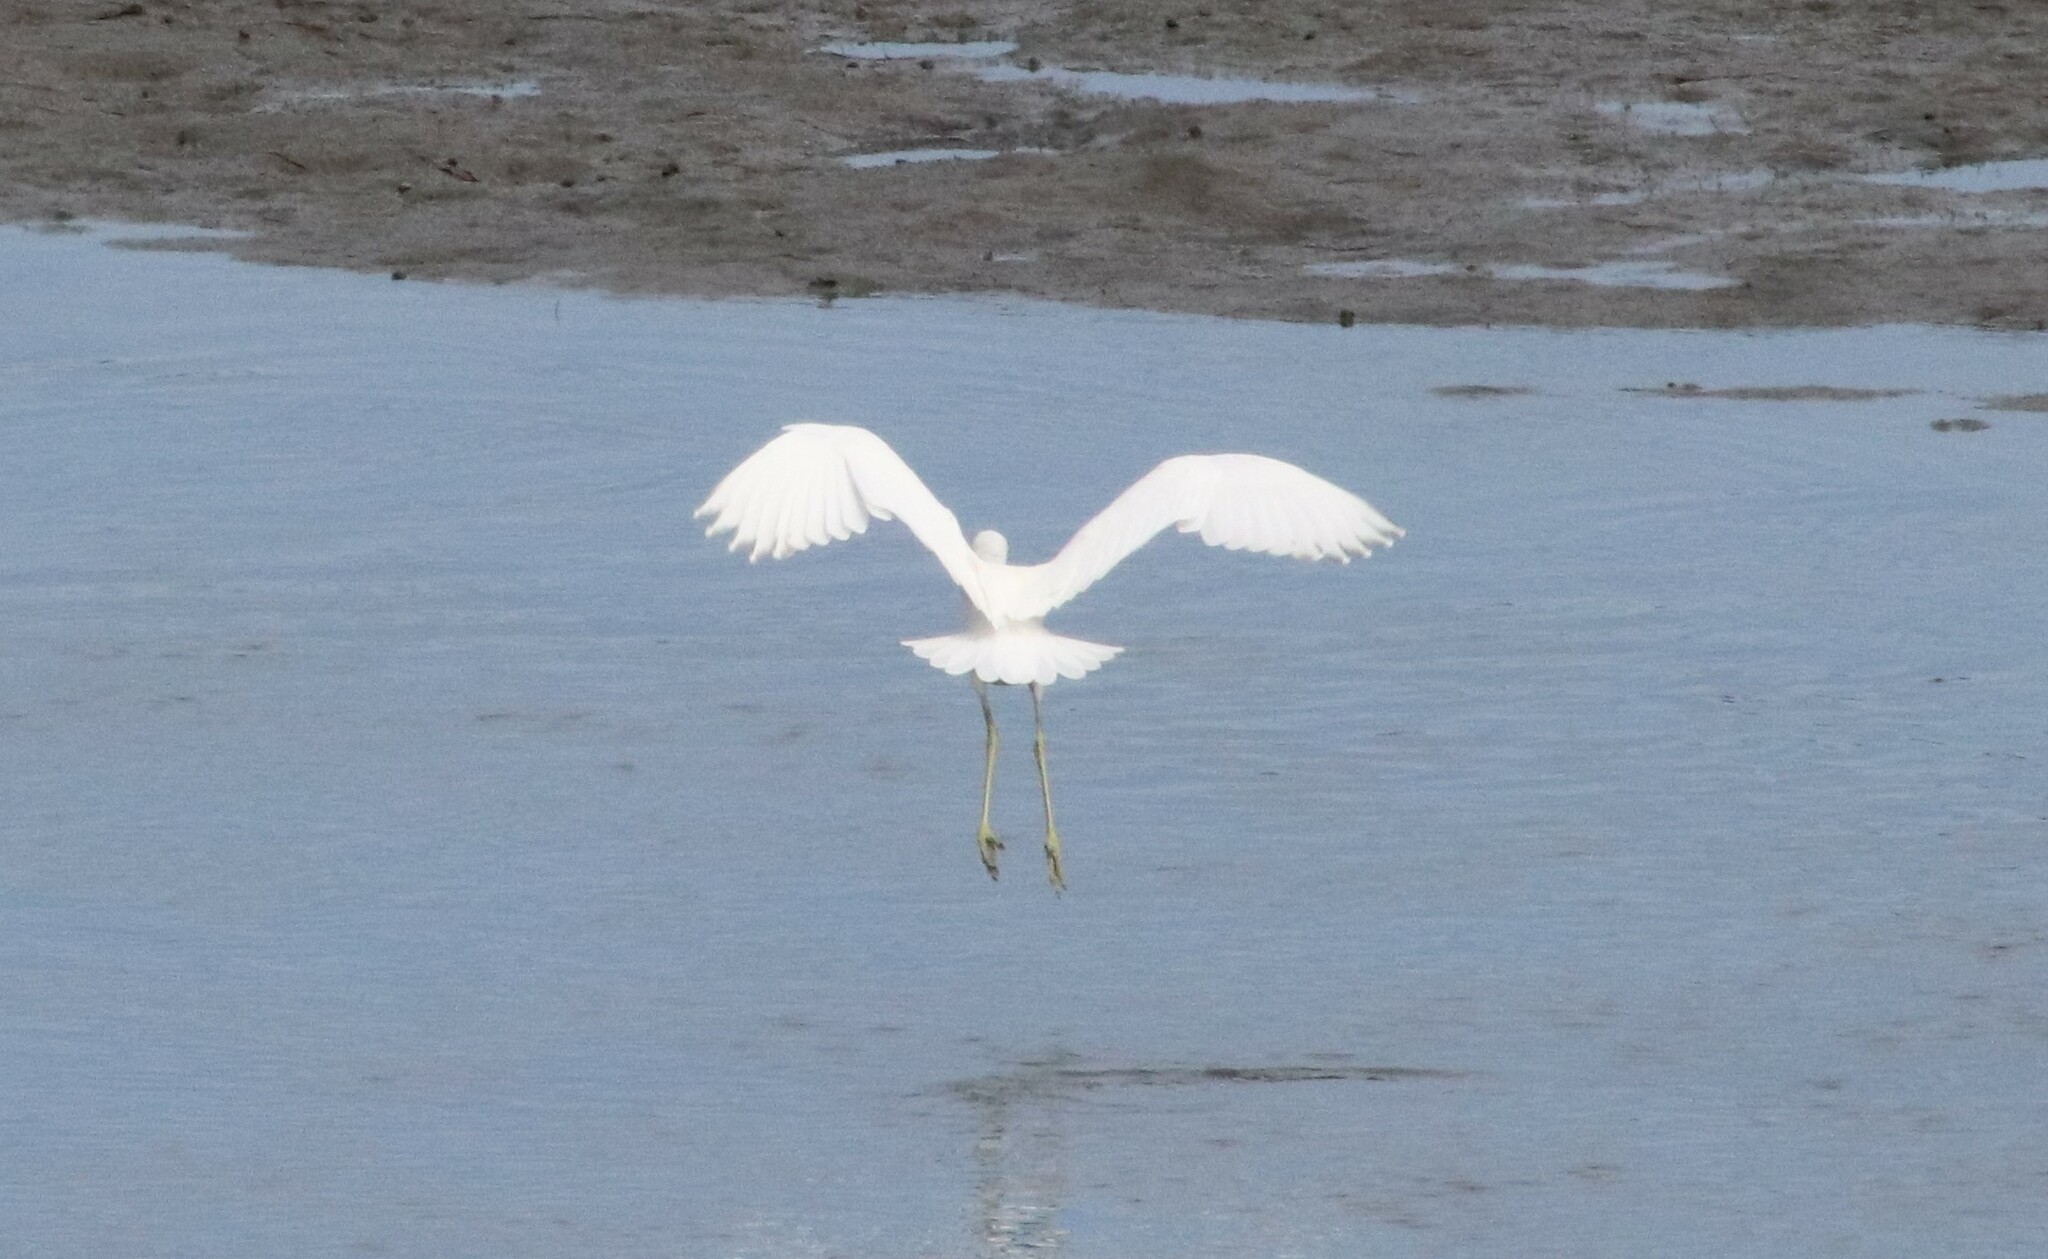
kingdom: Animalia
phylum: Chordata
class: Aves
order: Pelecaniformes
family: Ardeidae
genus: Egretta
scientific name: Egretta caerulea
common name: Little blue heron
